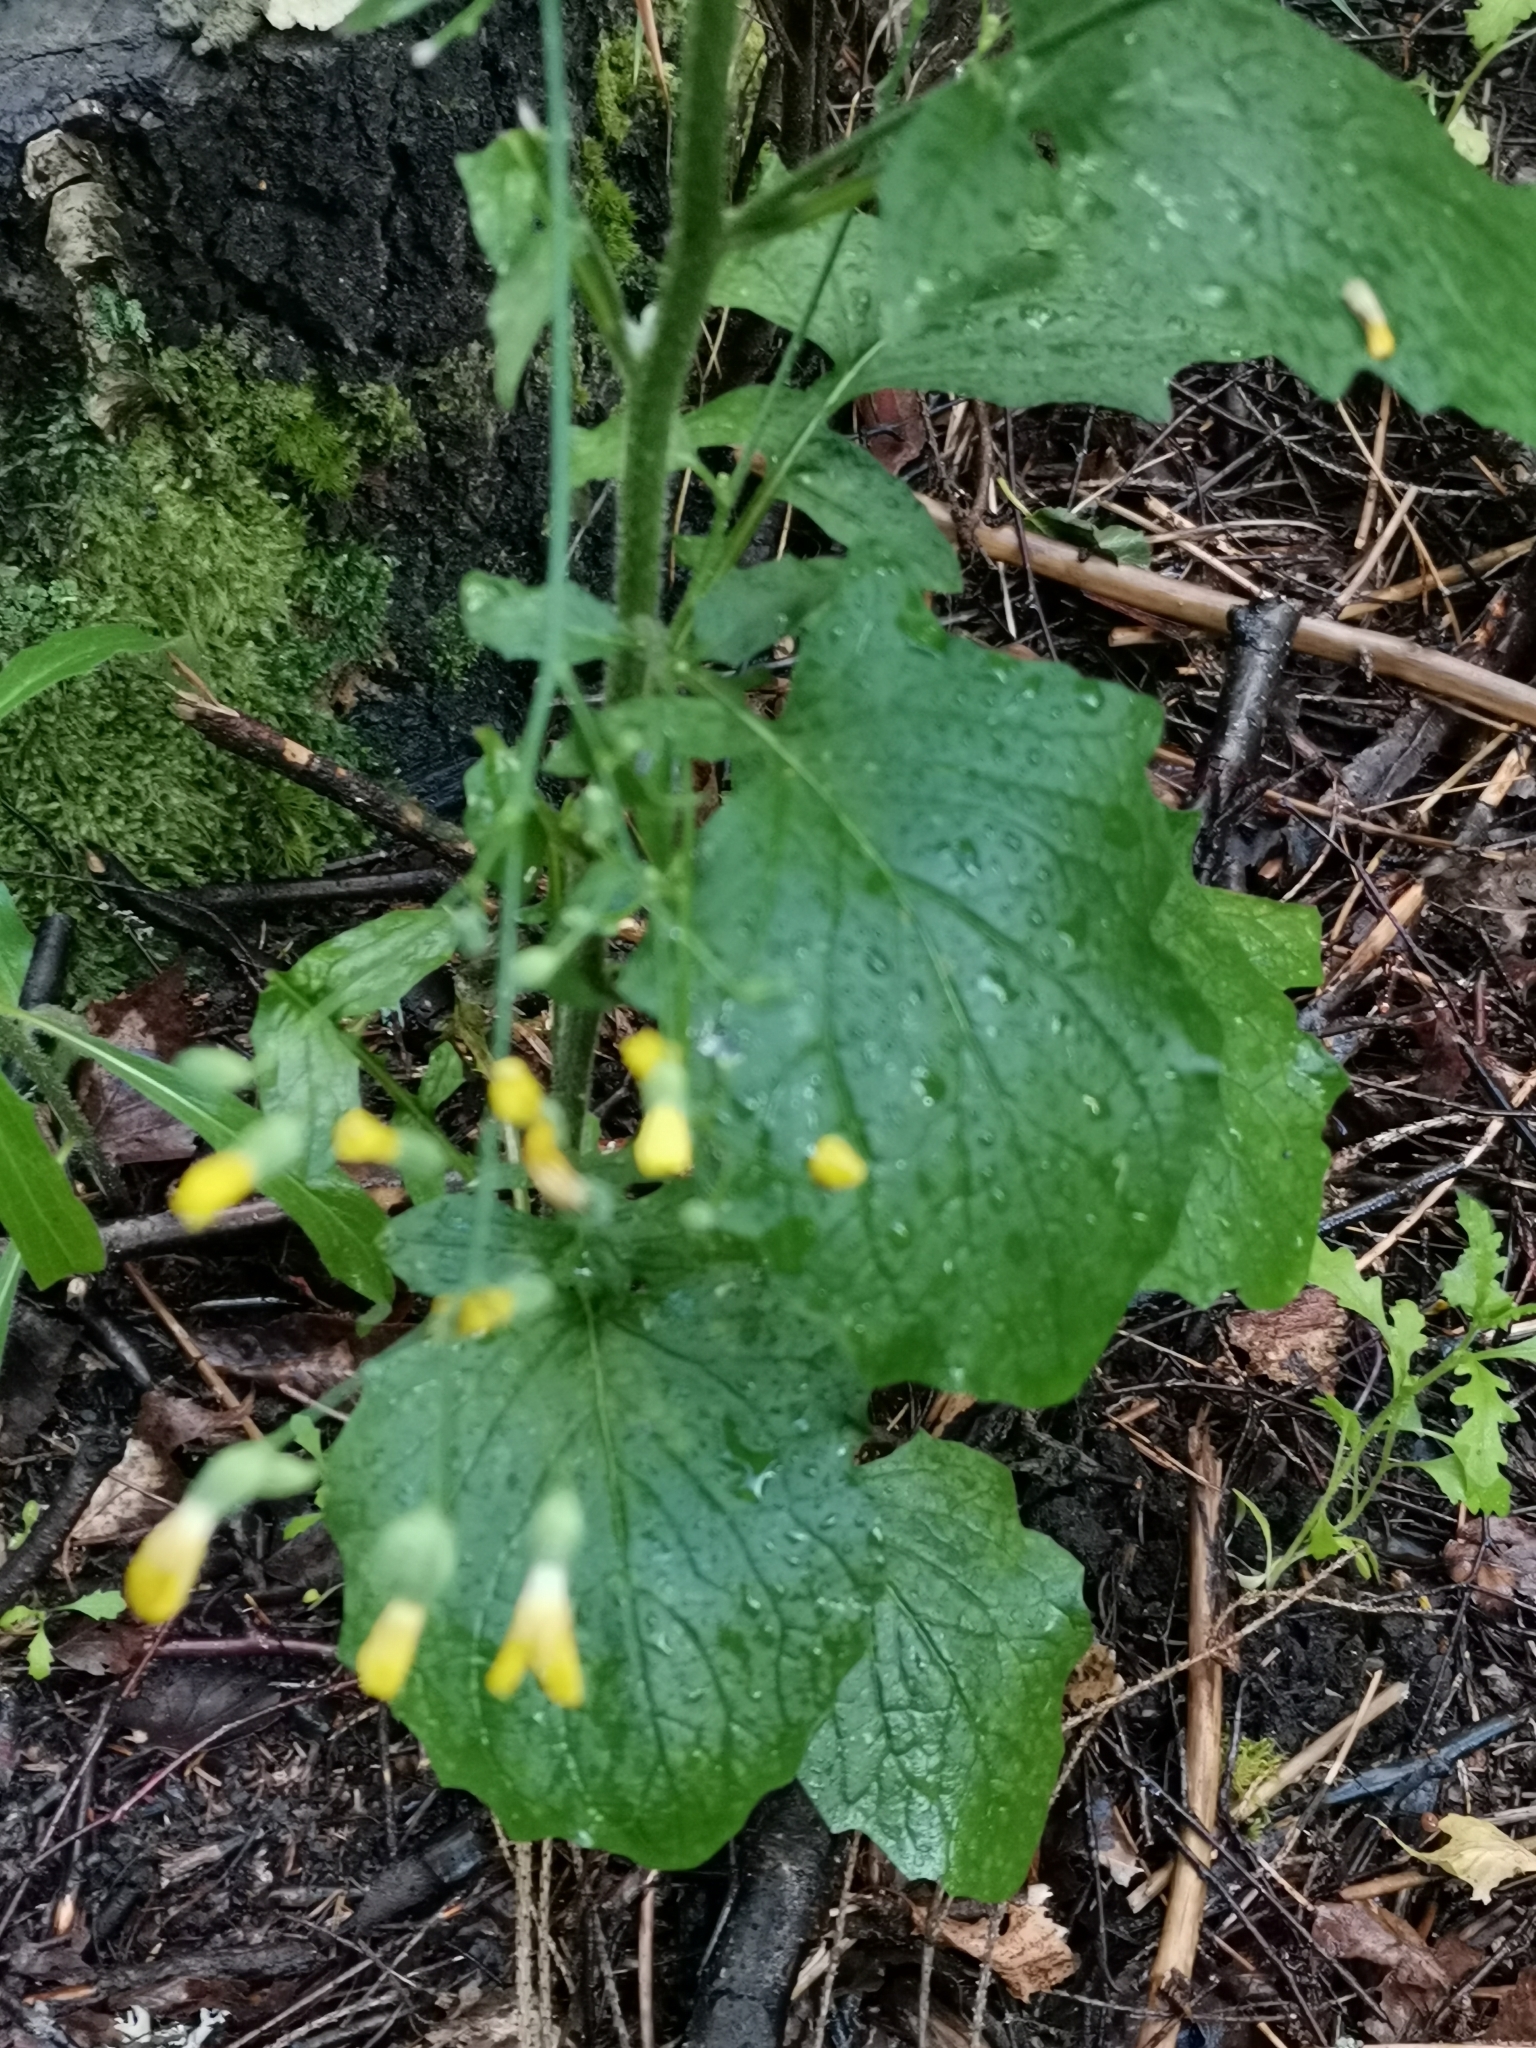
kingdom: Plantae
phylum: Tracheophyta
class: Magnoliopsida
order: Asterales
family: Asteraceae
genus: Lapsana
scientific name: Lapsana communis
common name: Nipplewort
